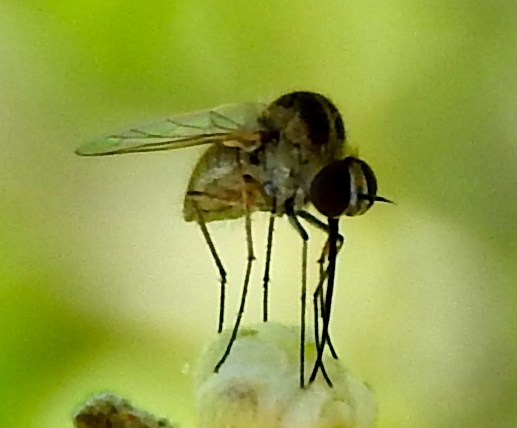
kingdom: Animalia
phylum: Arthropoda
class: Insecta
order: Diptera
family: Bombyliidae
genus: Geron
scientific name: Geron
